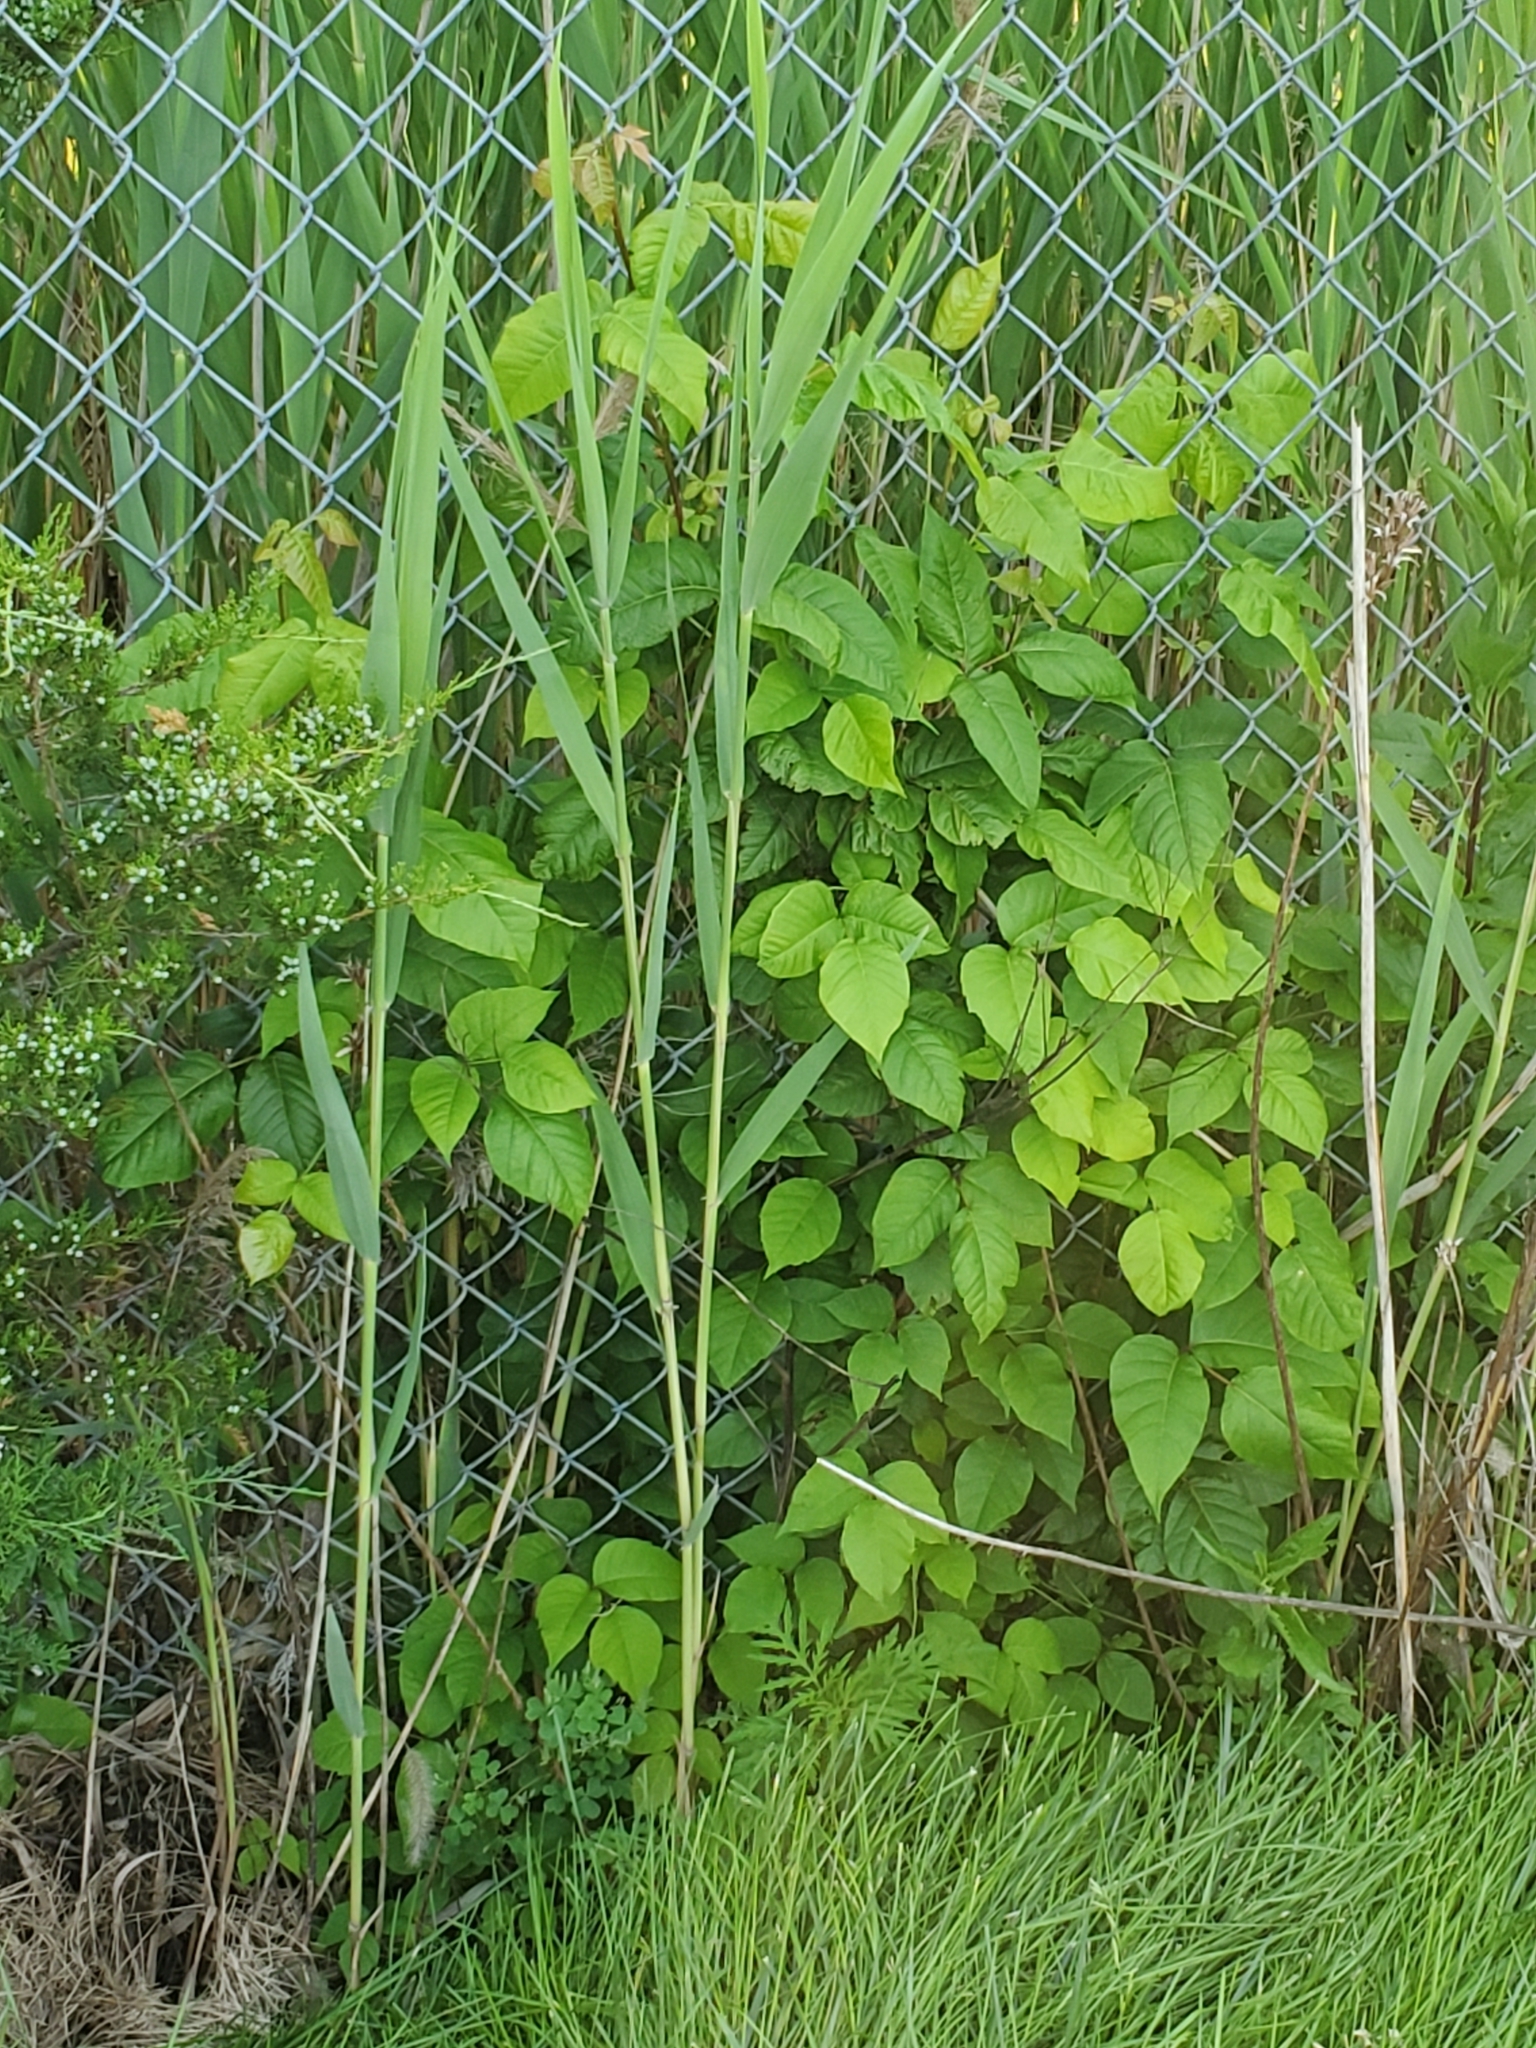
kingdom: Plantae
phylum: Tracheophyta
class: Magnoliopsida
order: Sapindales
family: Anacardiaceae
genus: Toxicodendron
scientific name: Toxicodendron radicans
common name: Poison ivy
